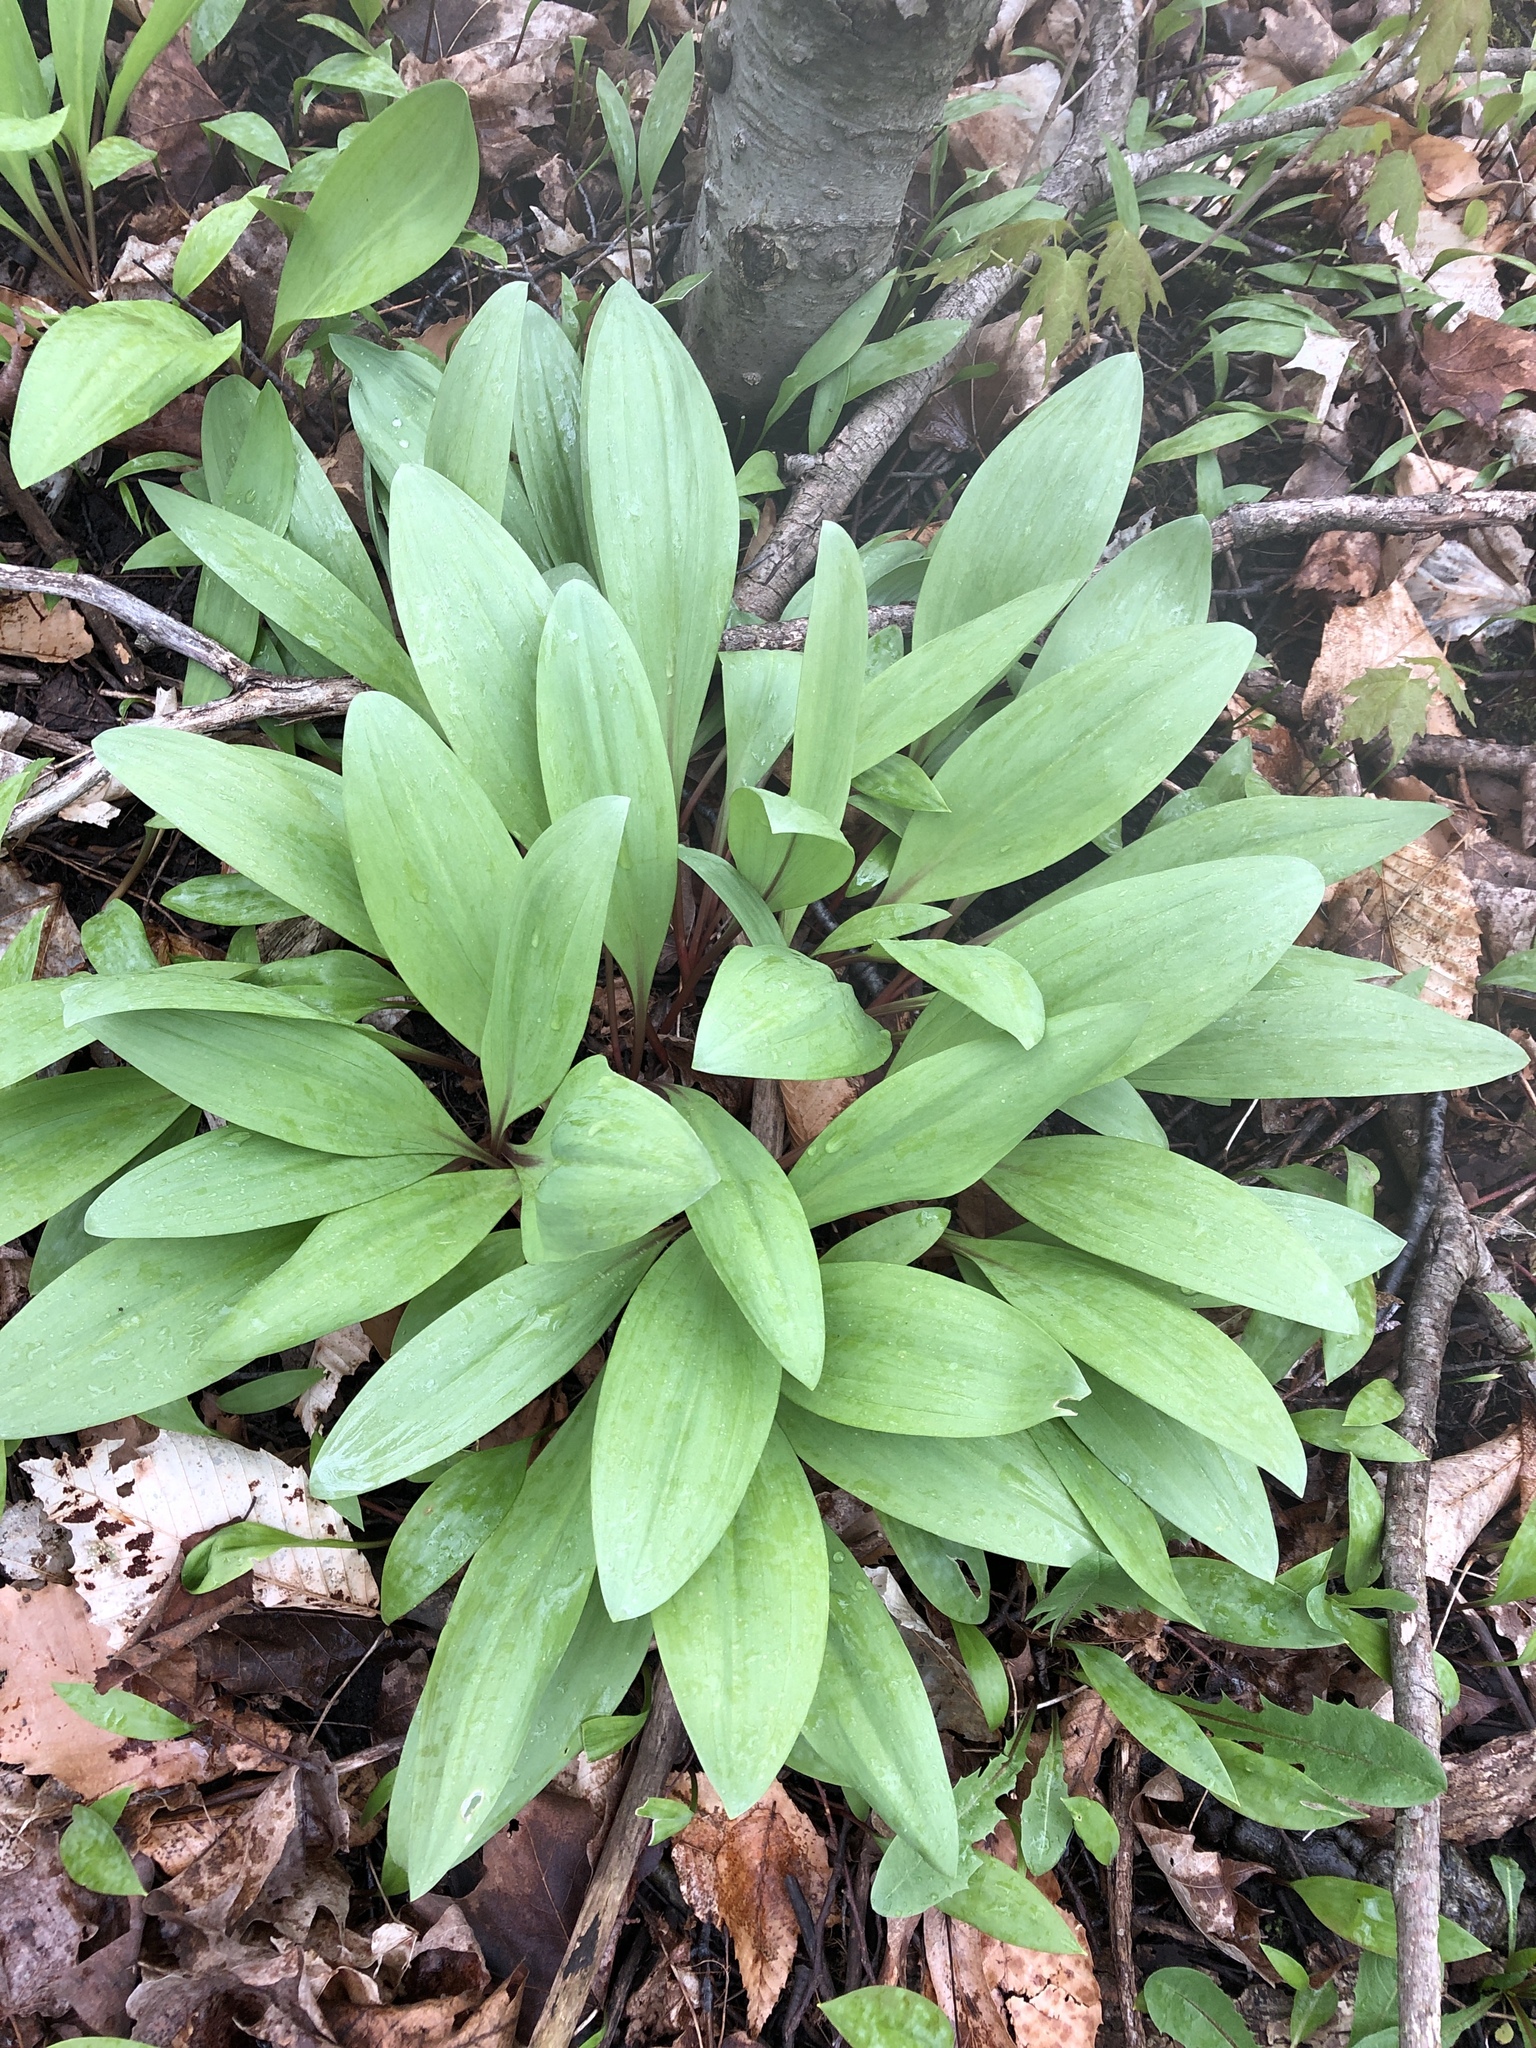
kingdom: Plantae
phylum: Tracheophyta
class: Liliopsida
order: Asparagales
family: Amaryllidaceae
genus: Allium
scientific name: Allium tricoccum
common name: Ramp
